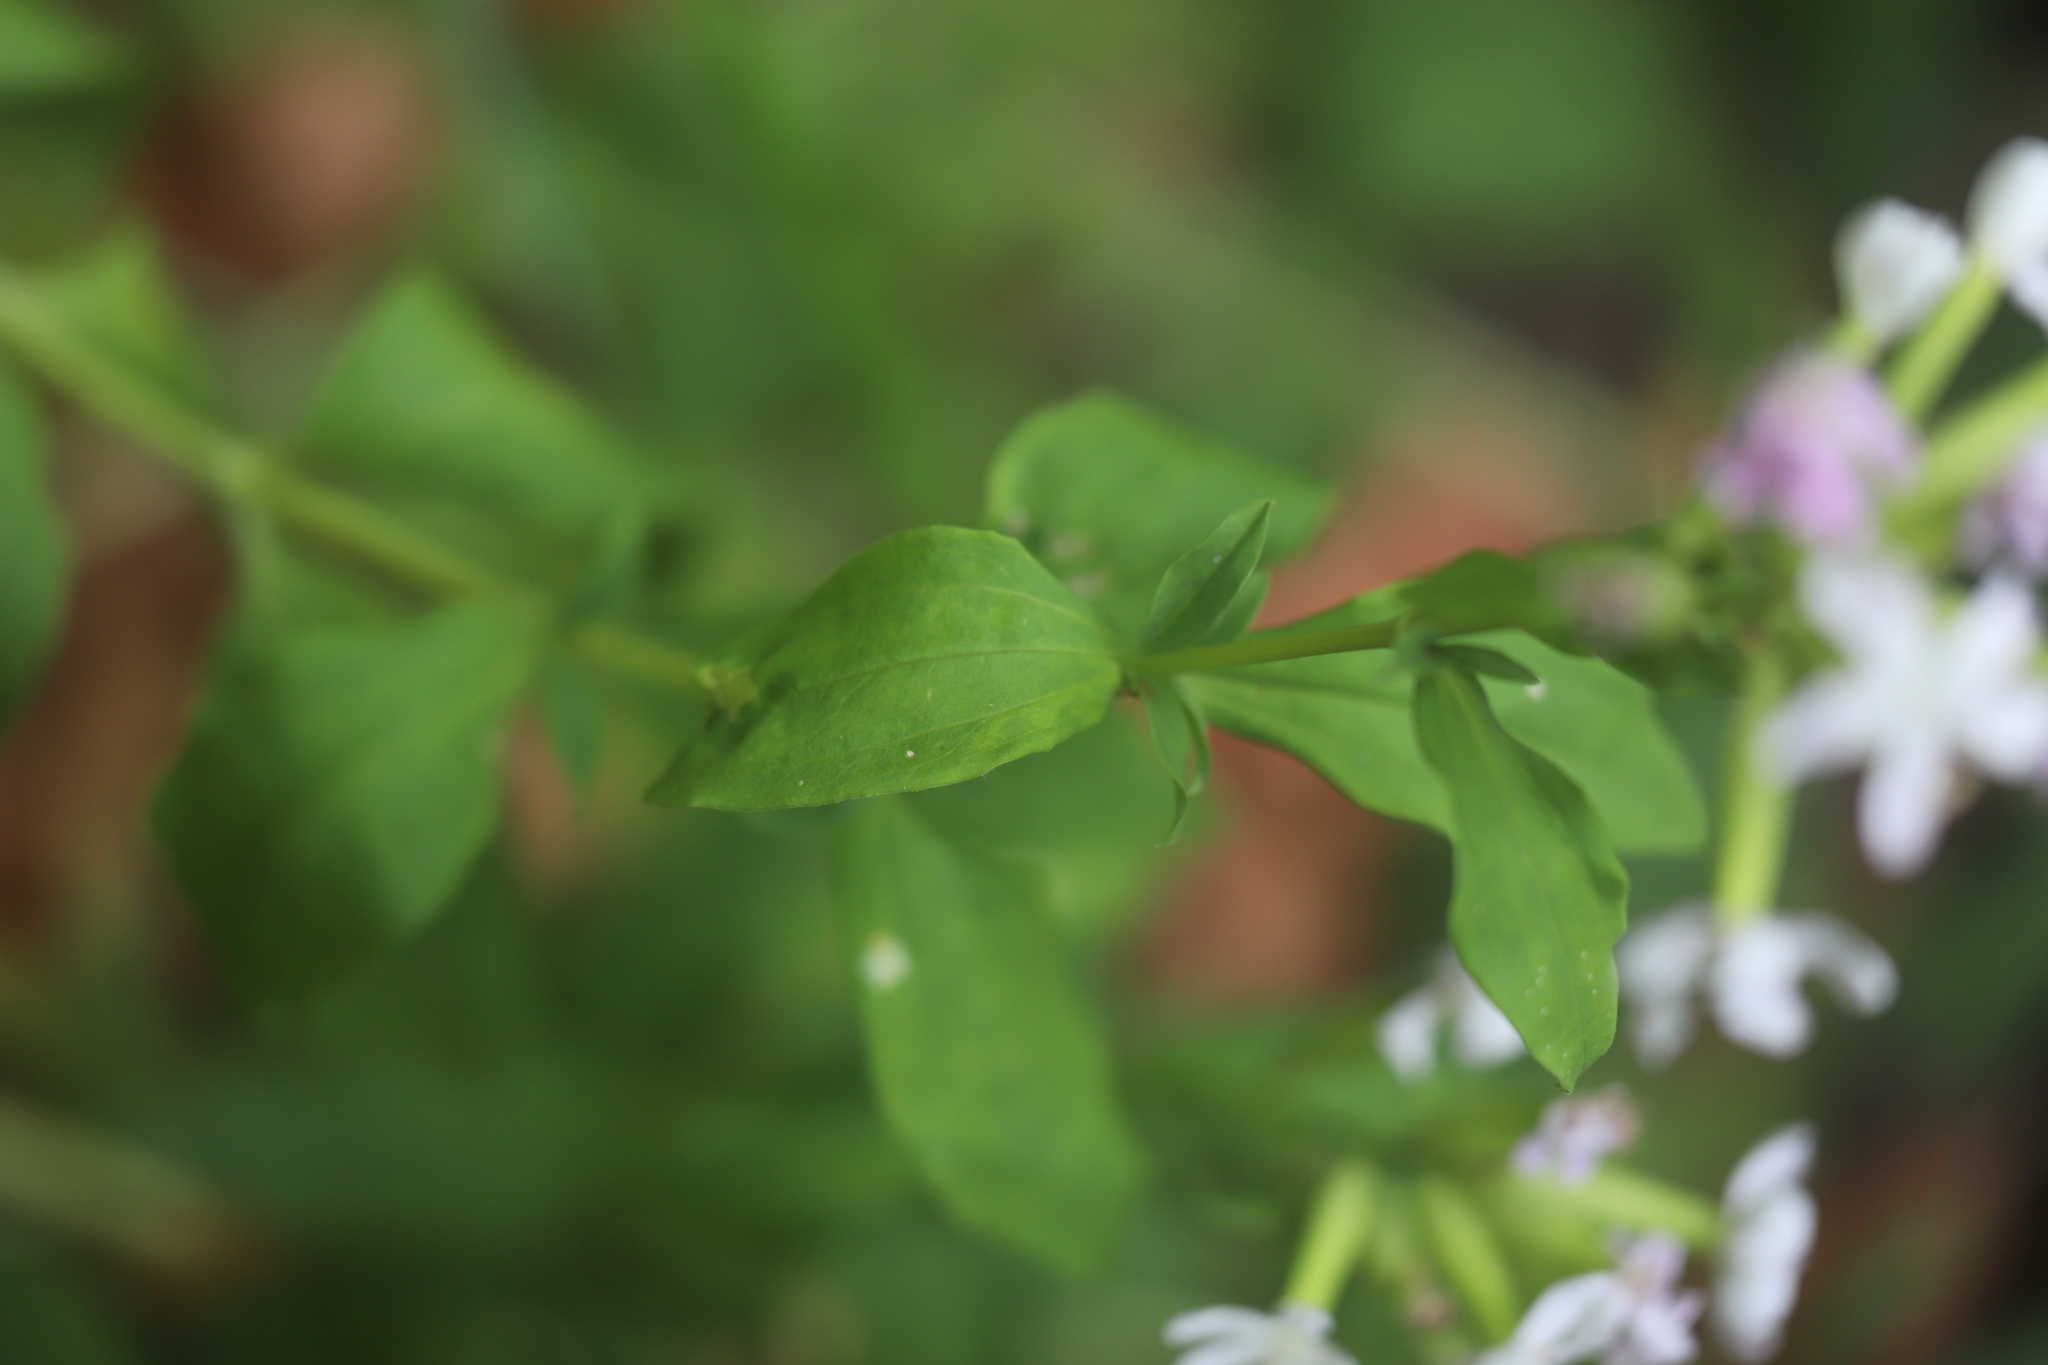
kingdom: Plantae
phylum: Tracheophyta
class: Magnoliopsida
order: Caryophyllales
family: Caryophyllaceae
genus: Saponaria
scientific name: Saponaria officinalis
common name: Soapwort
